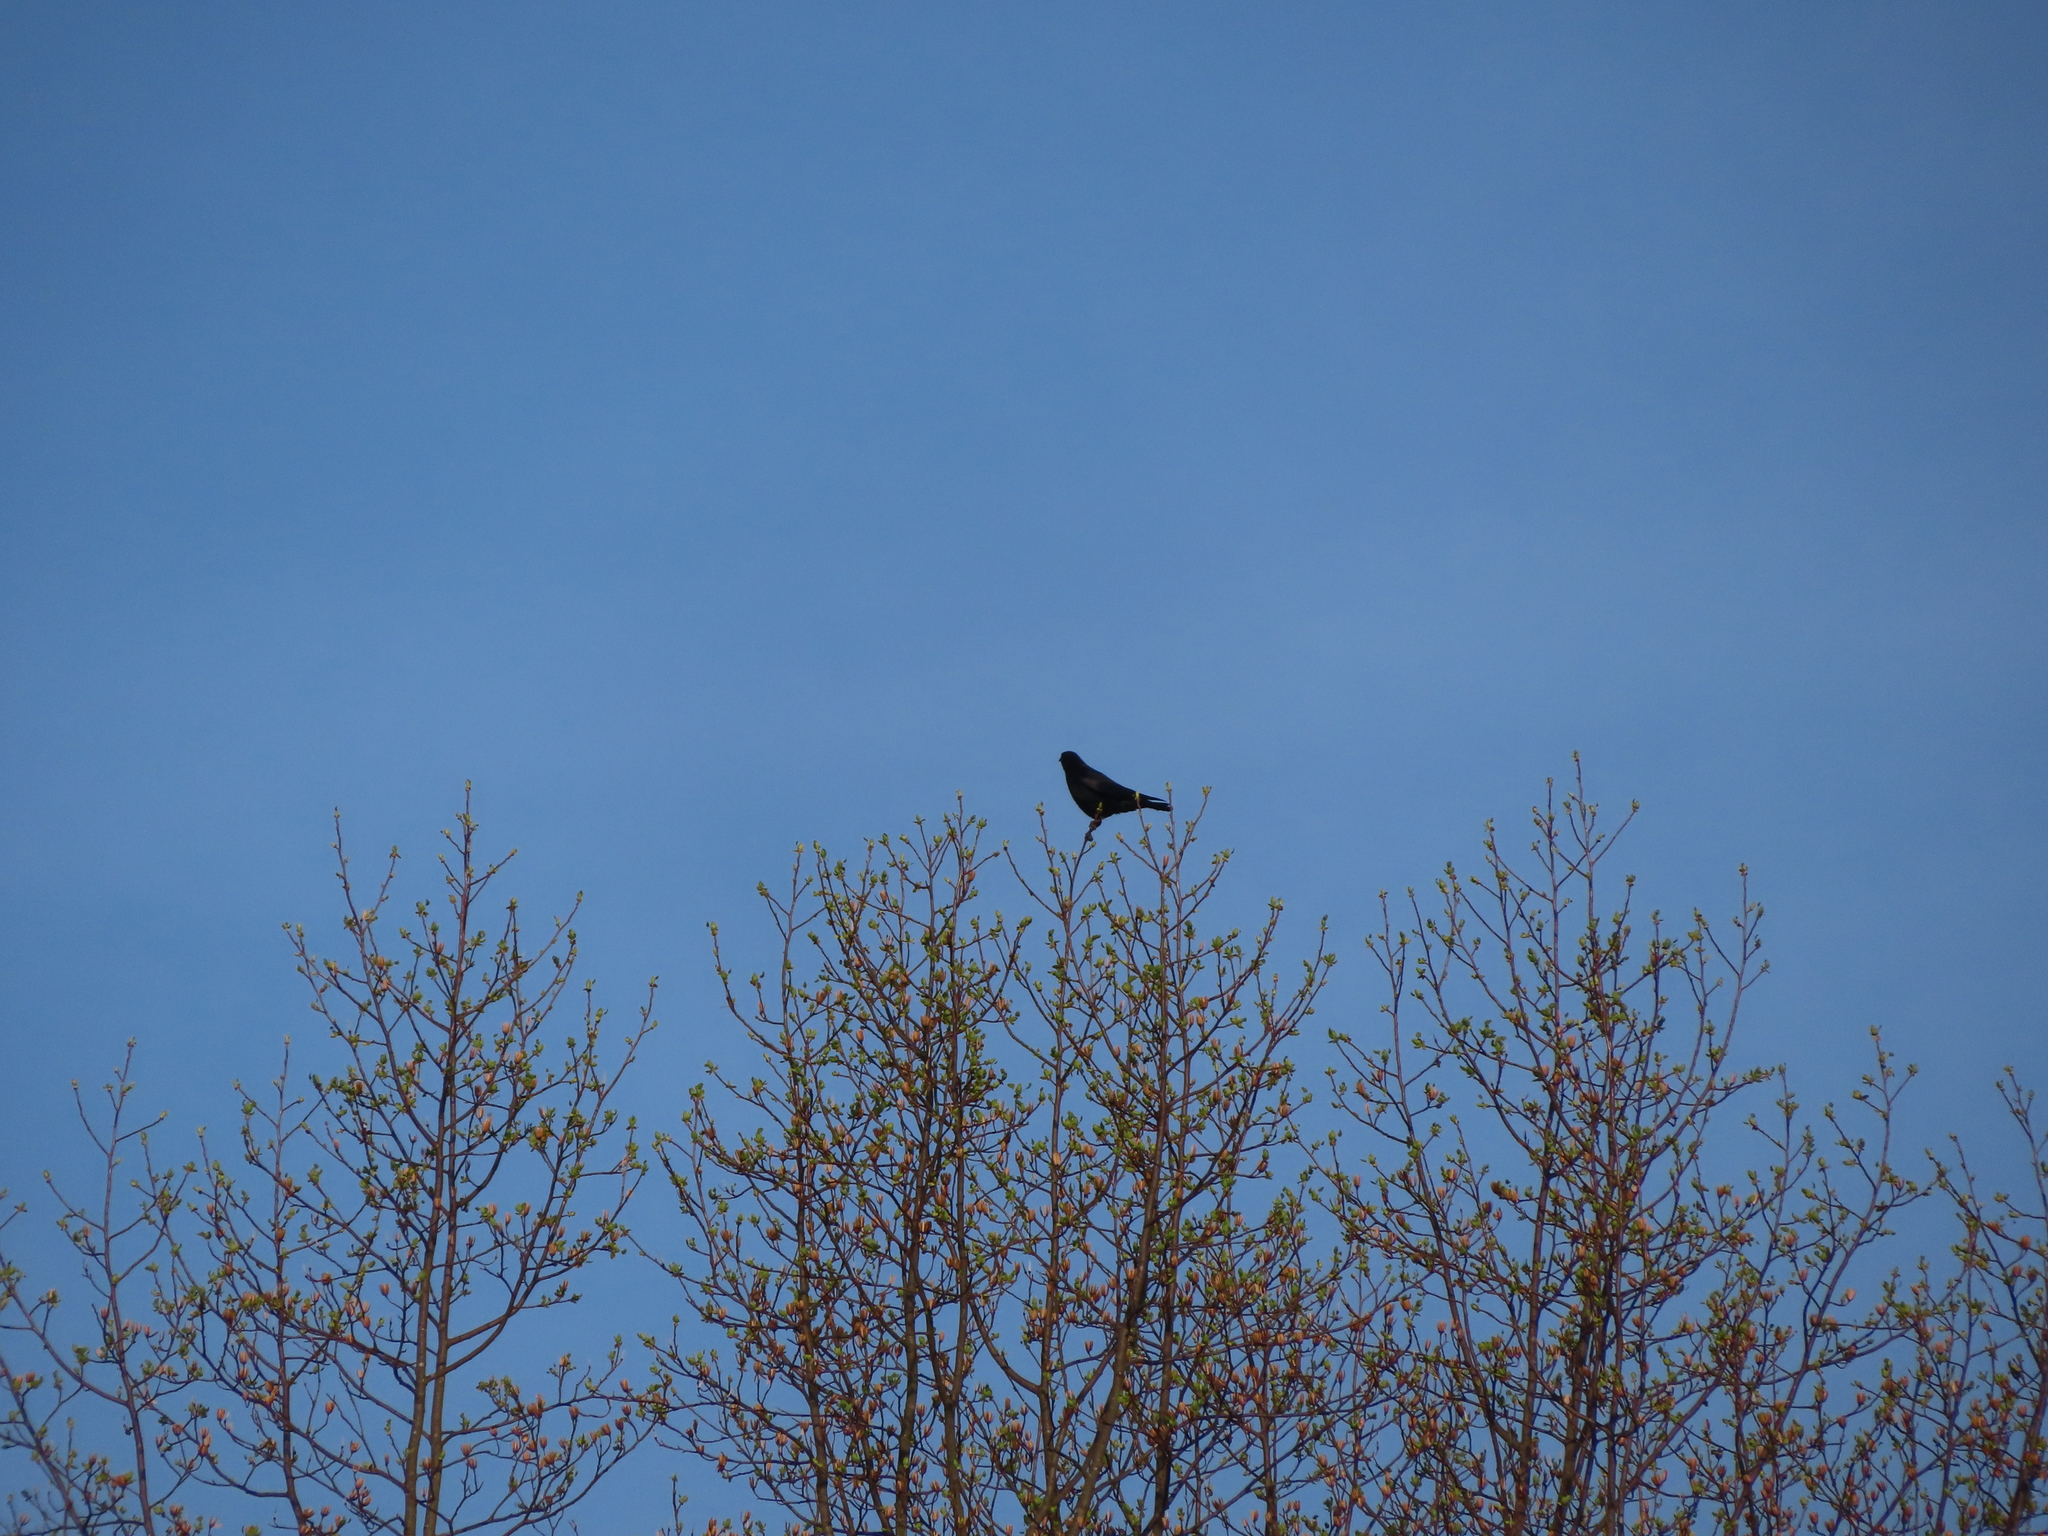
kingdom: Animalia
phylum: Chordata
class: Aves
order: Passeriformes
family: Corvidae
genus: Corvus
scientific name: Corvus brachyrhynchos
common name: American crow
